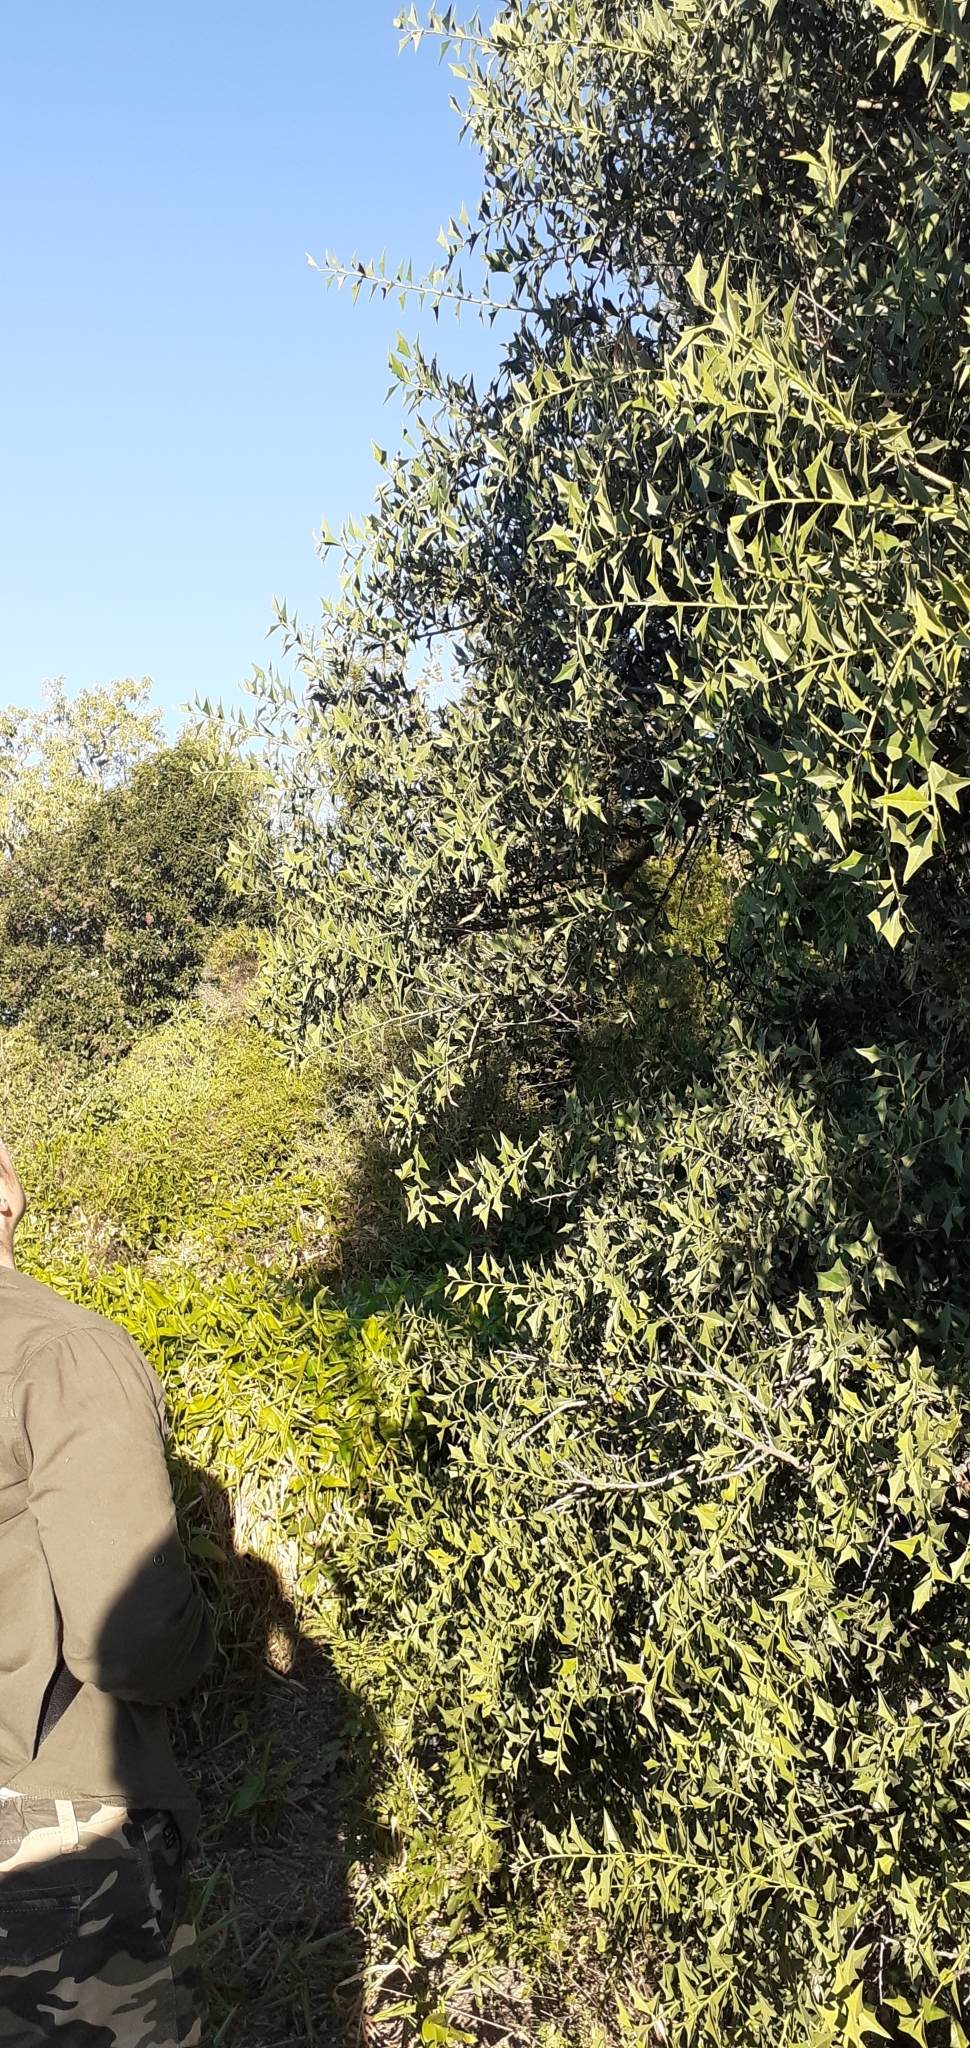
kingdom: Plantae
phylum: Tracheophyta
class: Magnoliopsida
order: Santalales
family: Cervantesiaceae
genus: Jodina
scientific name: Jodina rhombifolia
